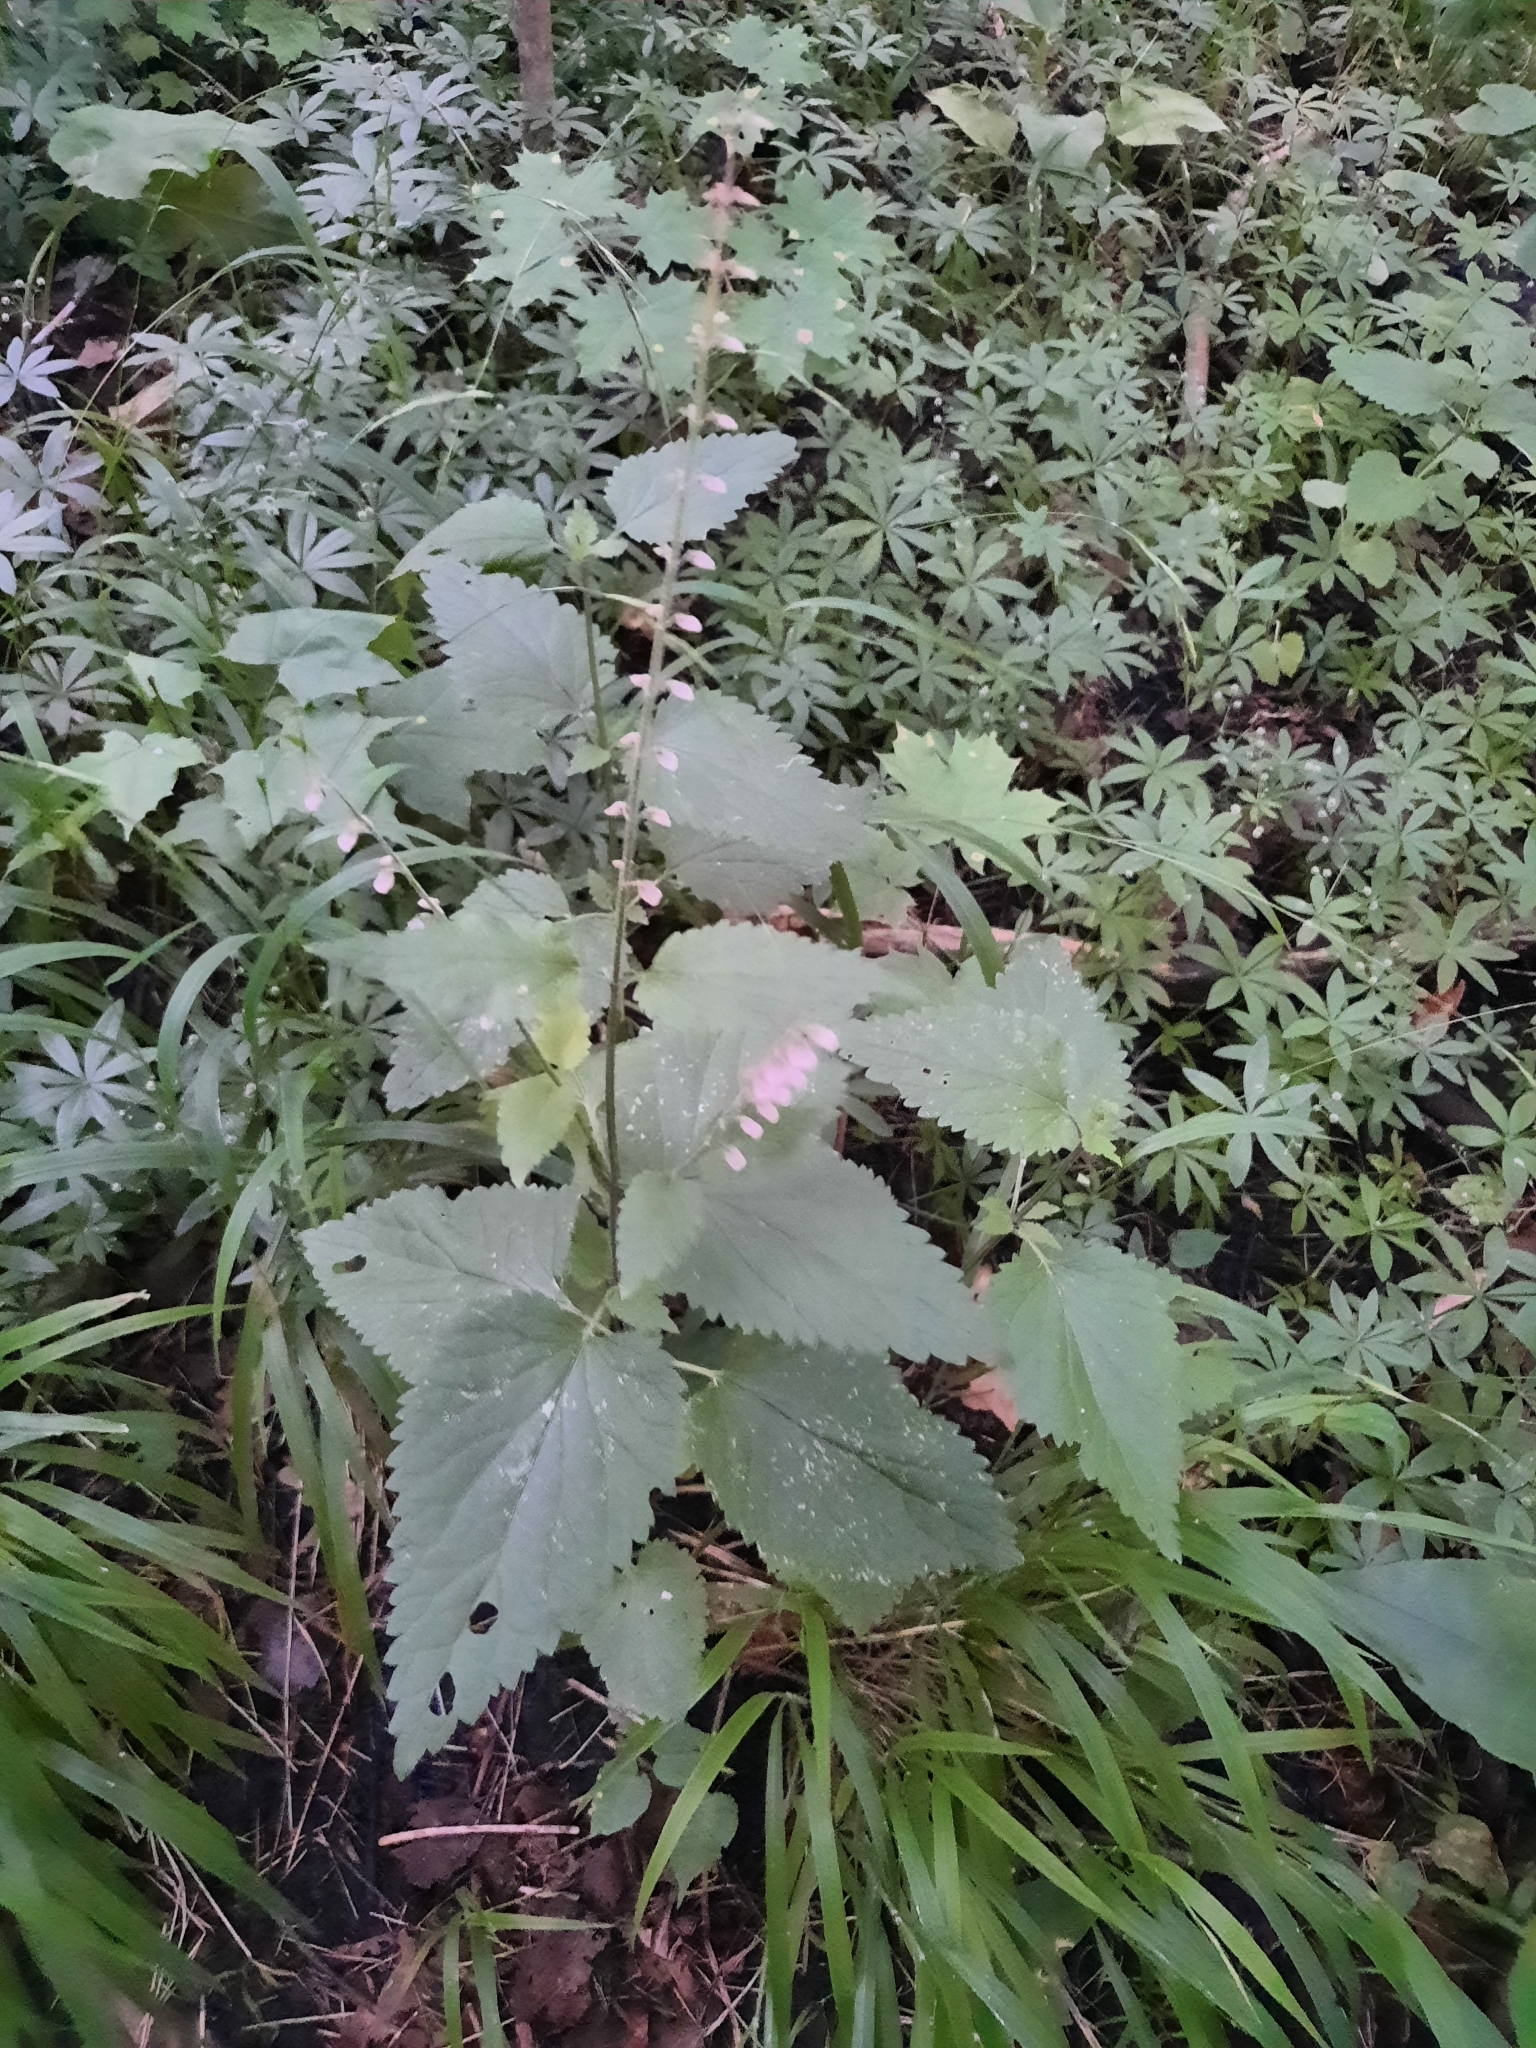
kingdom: Plantae
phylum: Tracheophyta
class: Magnoliopsida
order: Lamiales
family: Lamiaceae
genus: Scutellaria
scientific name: Scutellaria altissima
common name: Somerset skullcap
